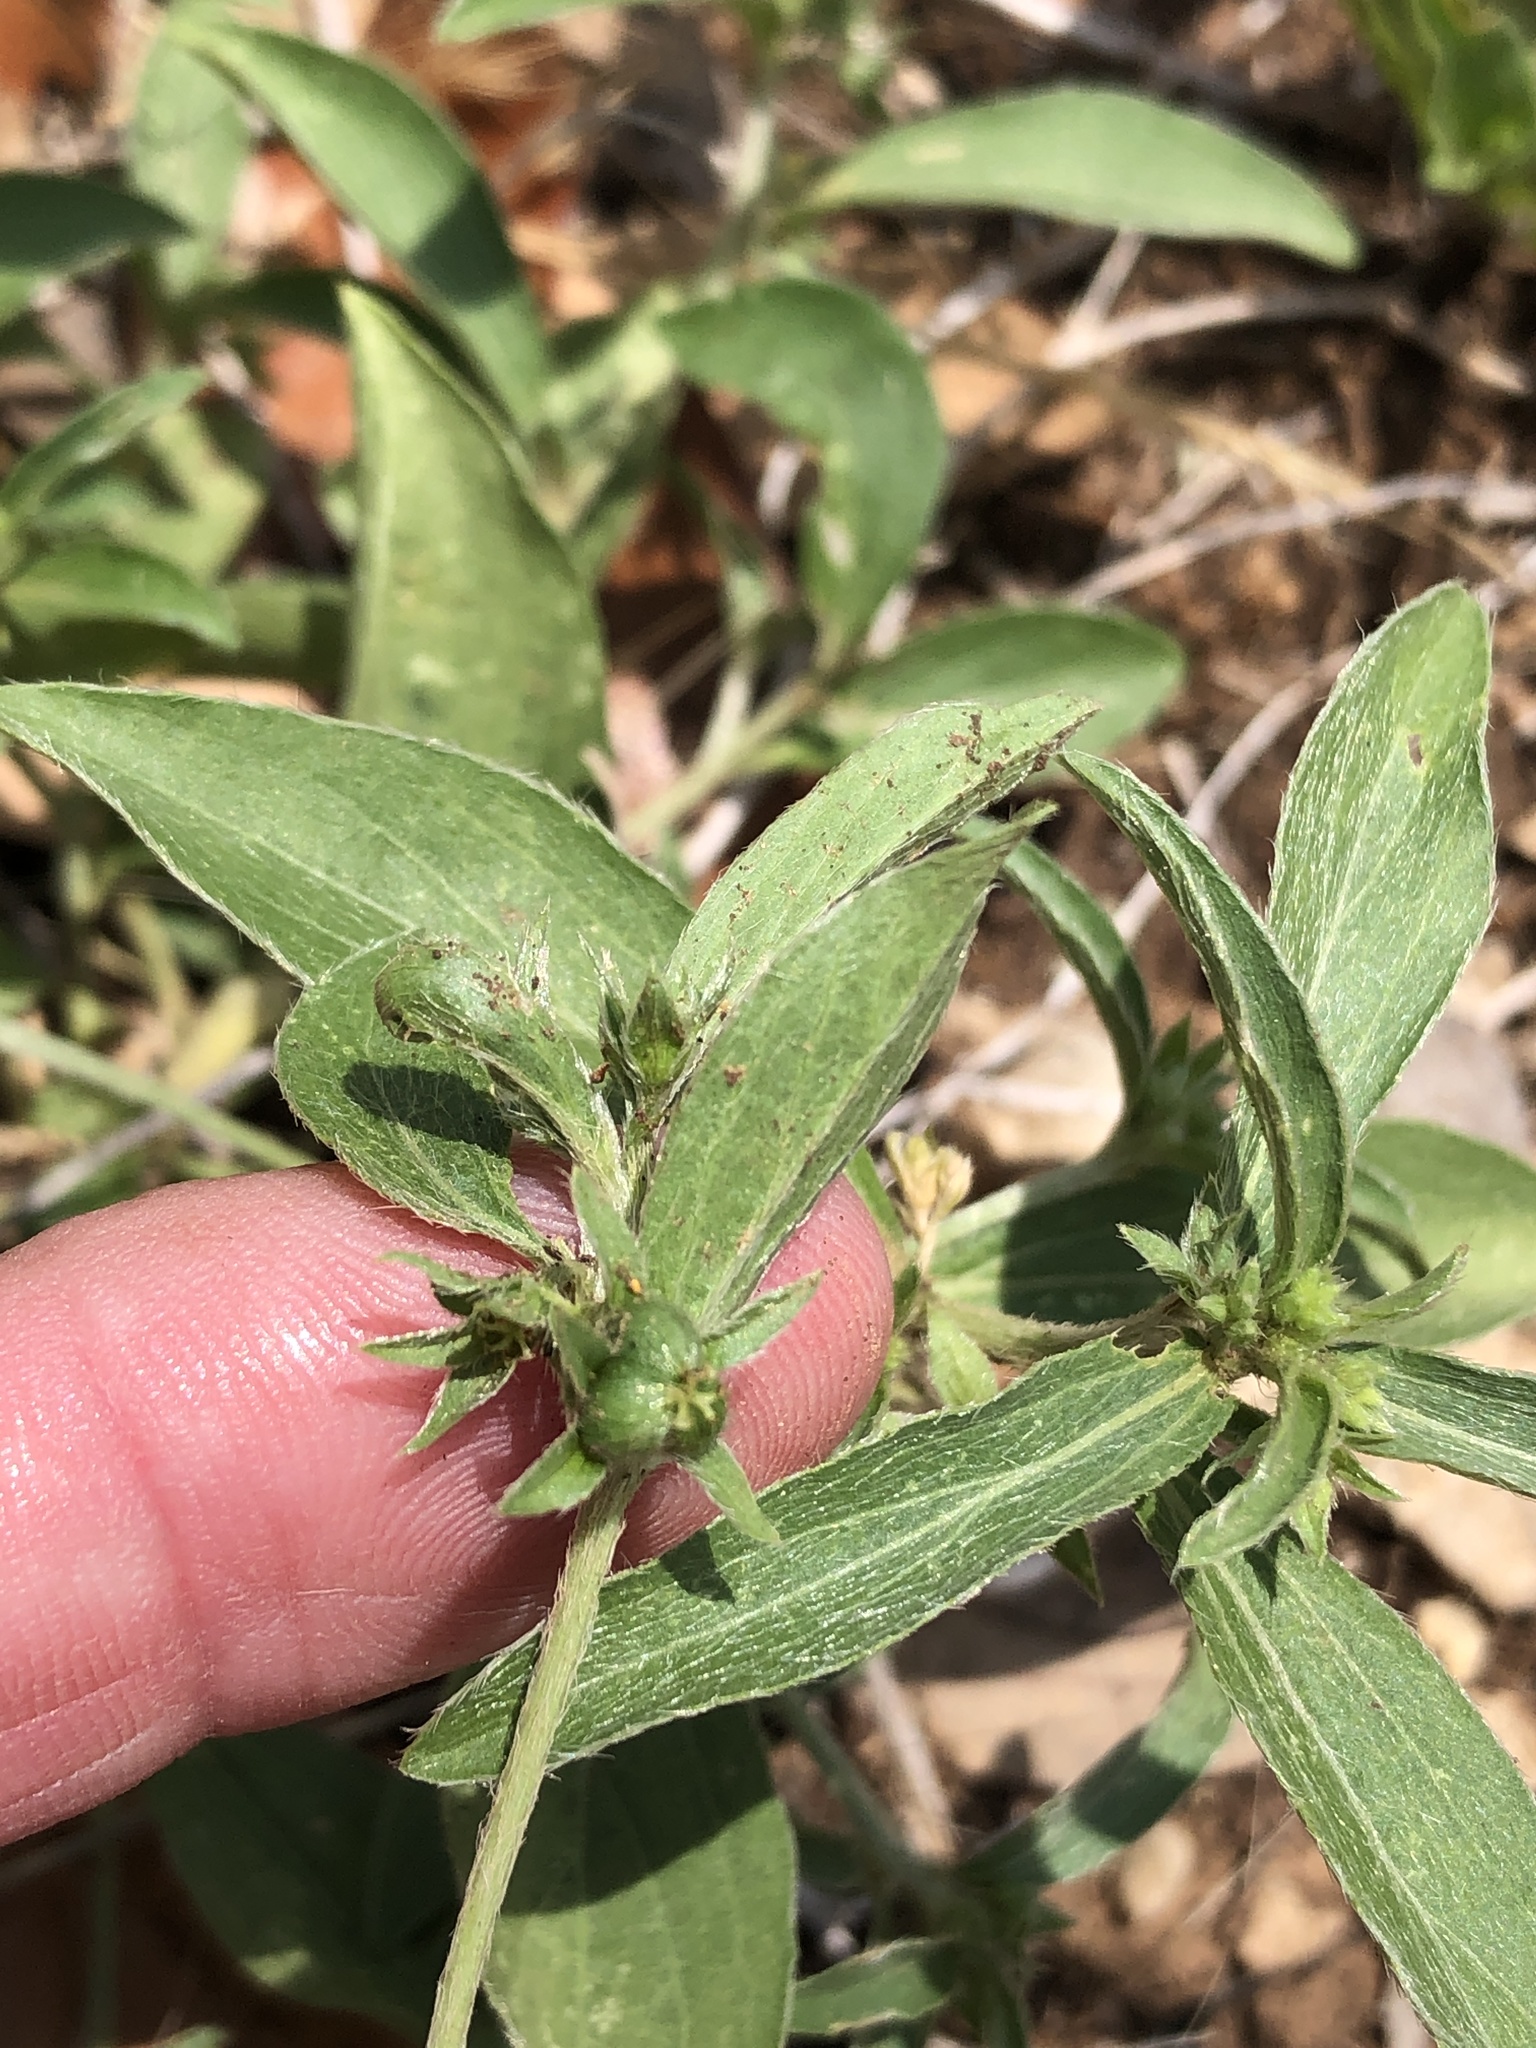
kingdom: Plantae
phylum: Tracheophyta
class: Magnoliopsida
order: Malpighiales
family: Euphorbiaceae
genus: Ditaxis
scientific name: Ditaxis humilis
